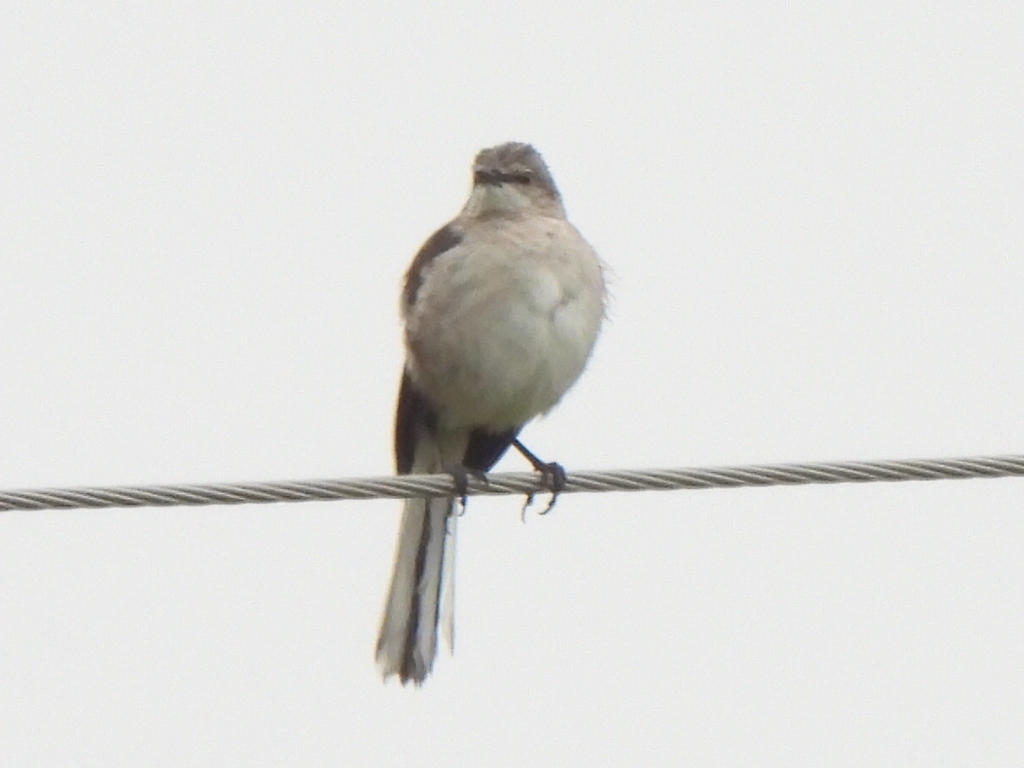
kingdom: Animalia
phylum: Chordata
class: Aves
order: Passeriformes
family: Mimidae
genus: Mimus
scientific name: Mimus polyglottos
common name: Northern mockingbird
